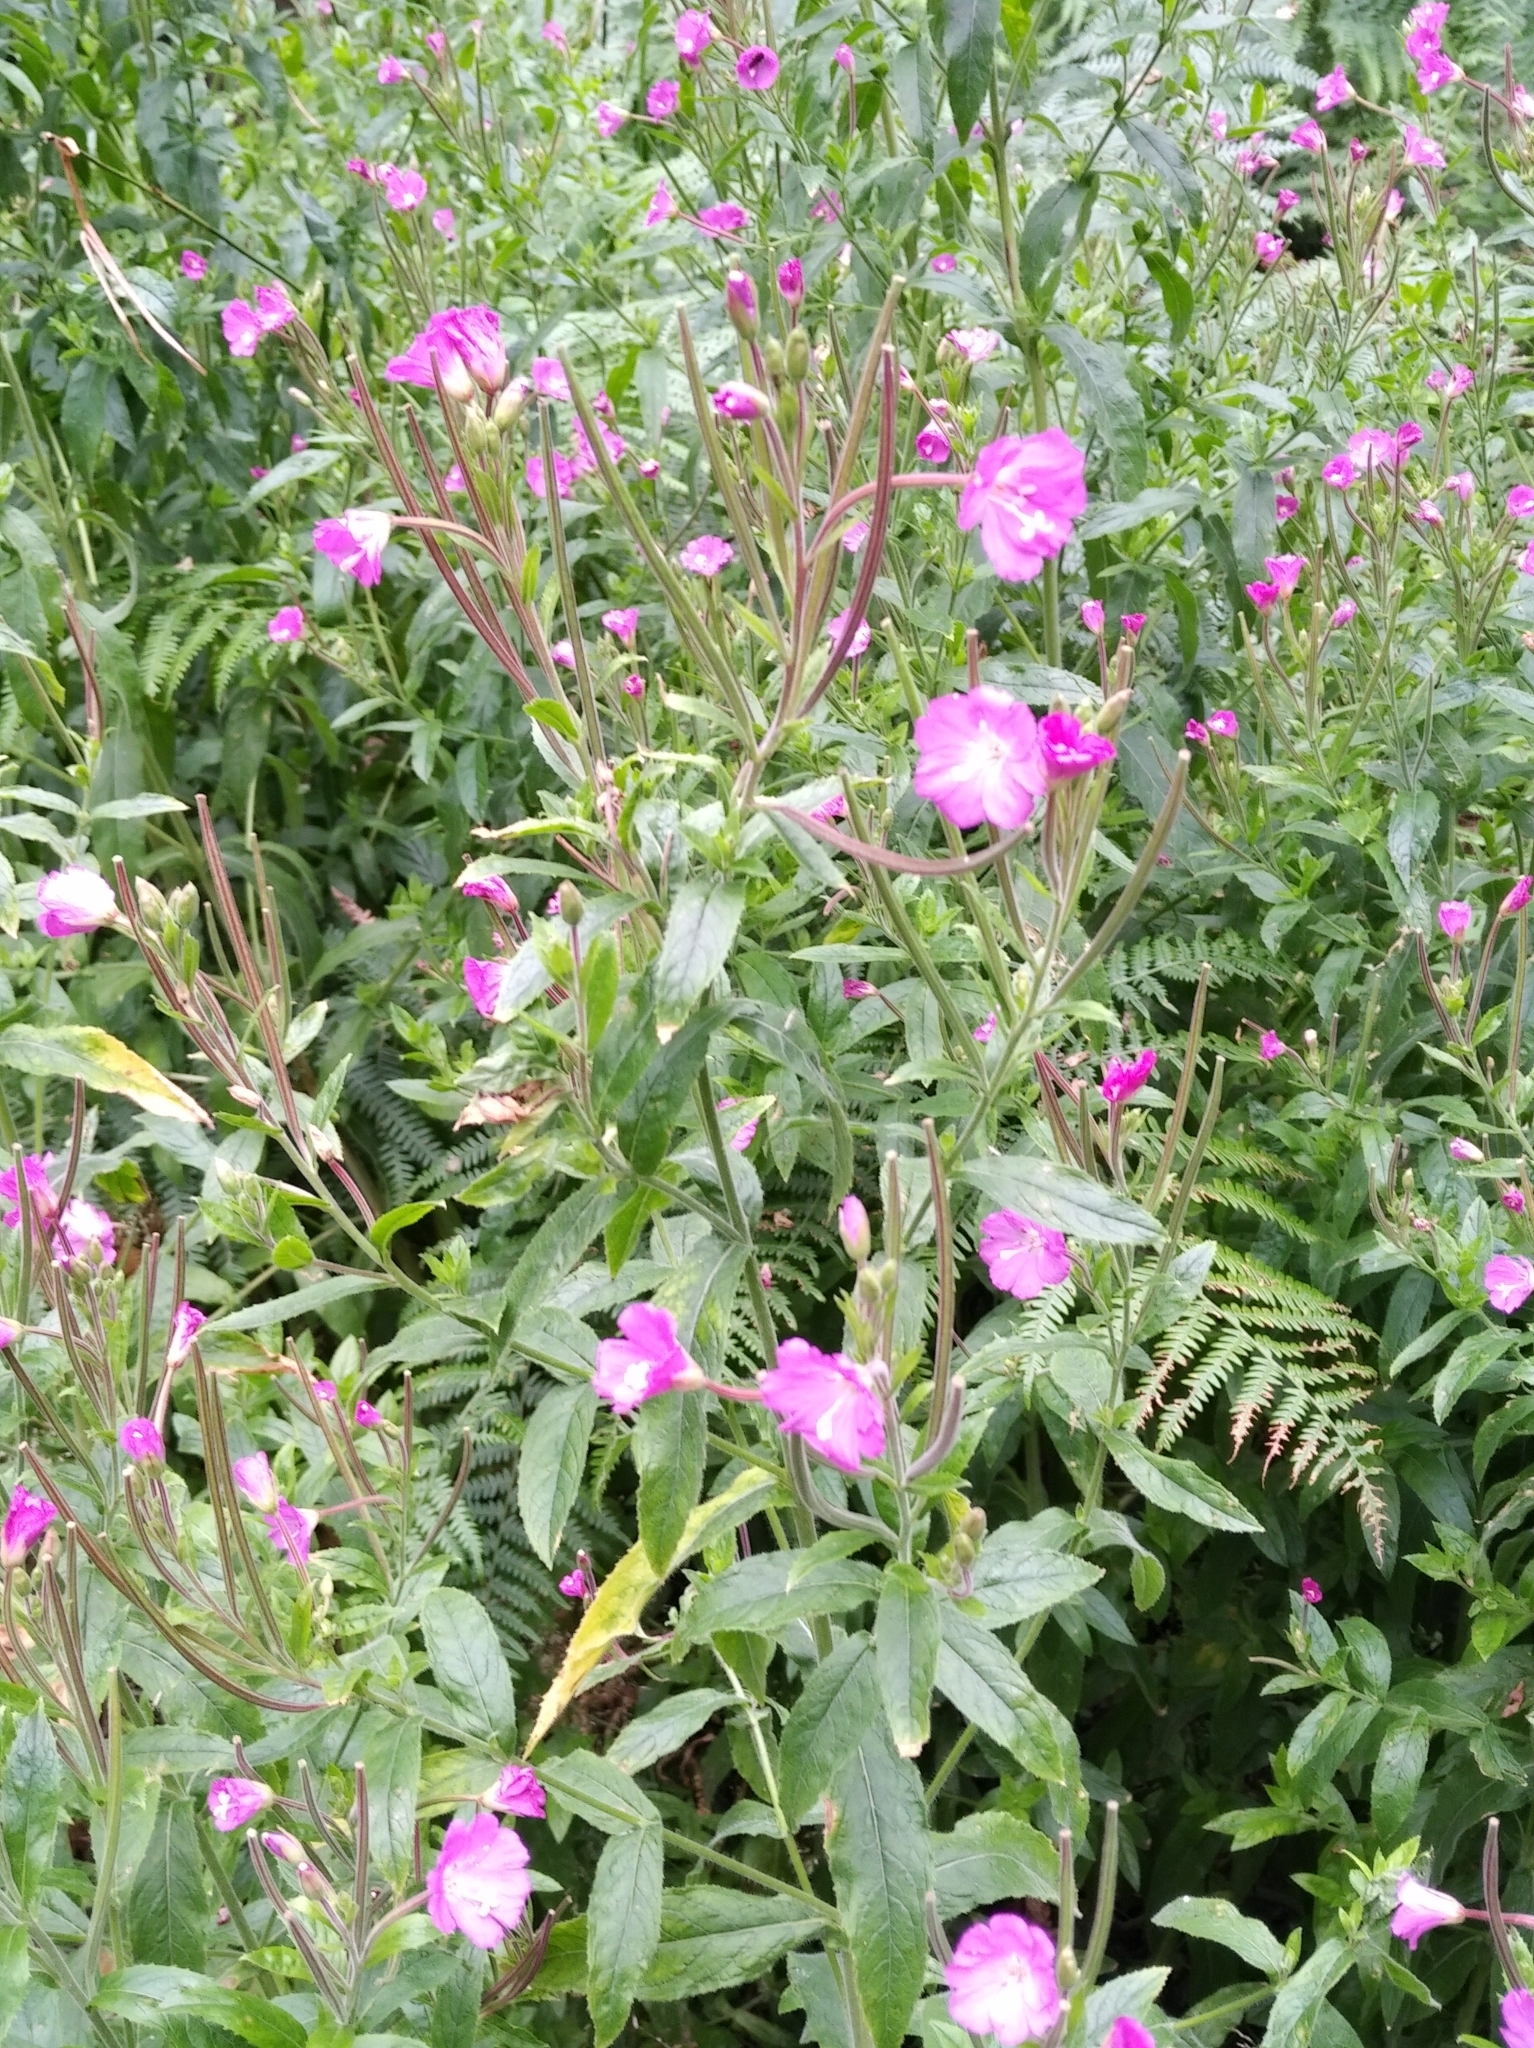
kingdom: Plantae
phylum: Tracheophyta
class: Magnoliopsida
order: Myrtales
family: Onagraceae
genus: Epilobium
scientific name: Epilobium hirsutum
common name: Great willowherb
